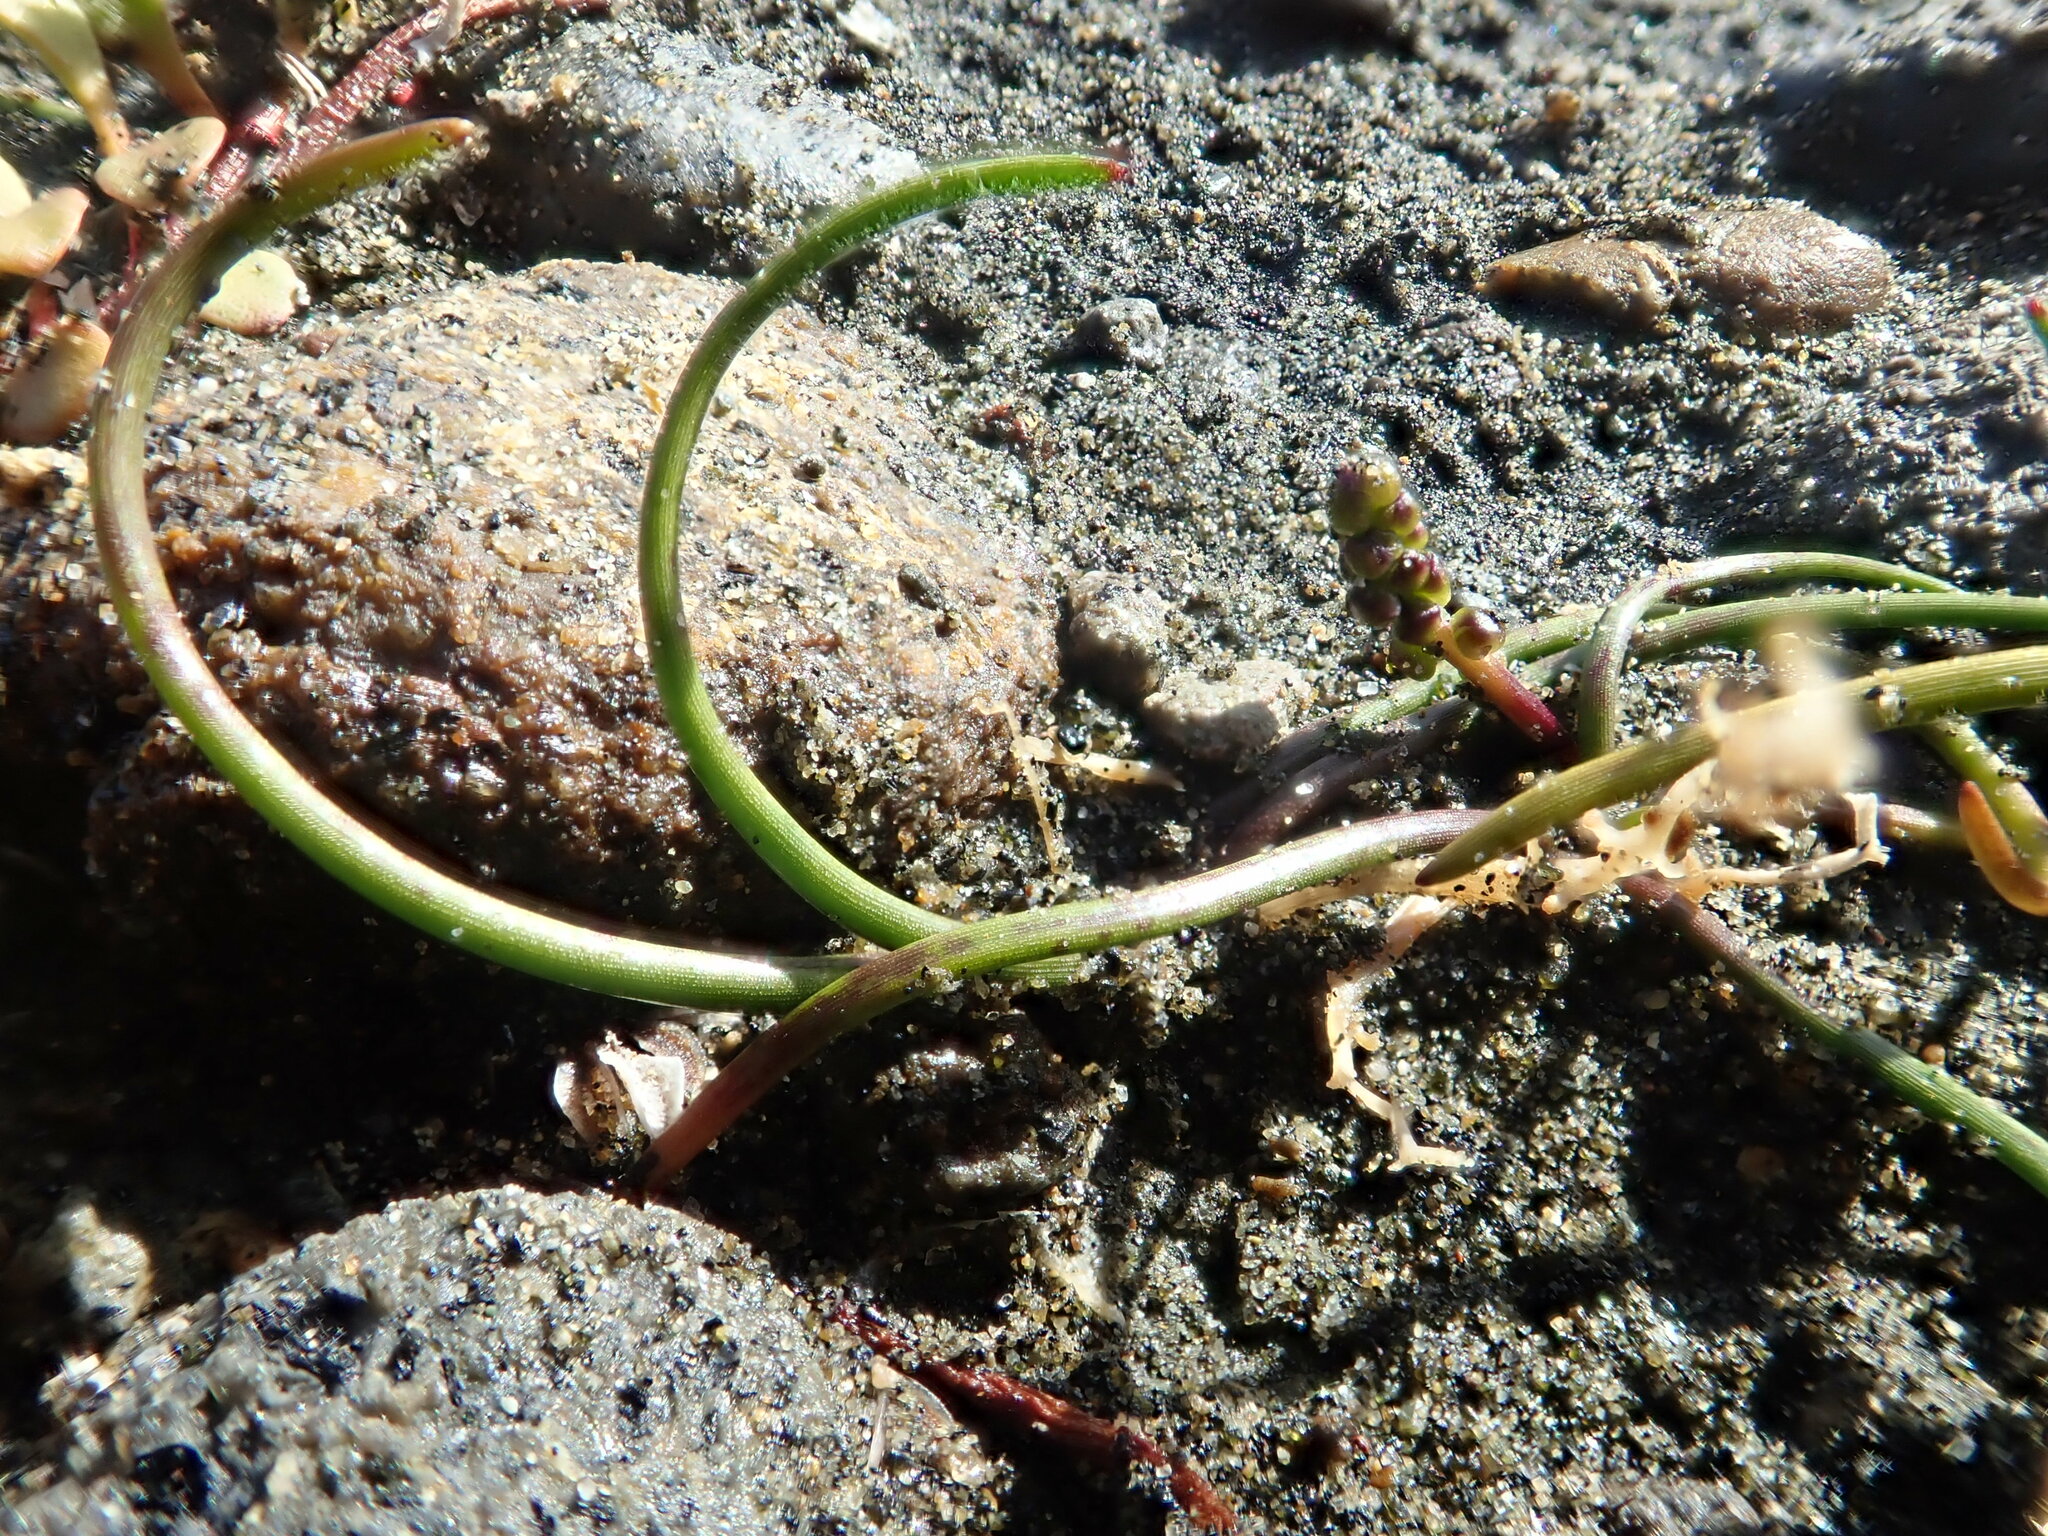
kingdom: Plantae
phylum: Tracheophyta
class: Liliopsida
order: Alismatales
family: Juncaginaceae
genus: Triglochin
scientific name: Triglochin striata
